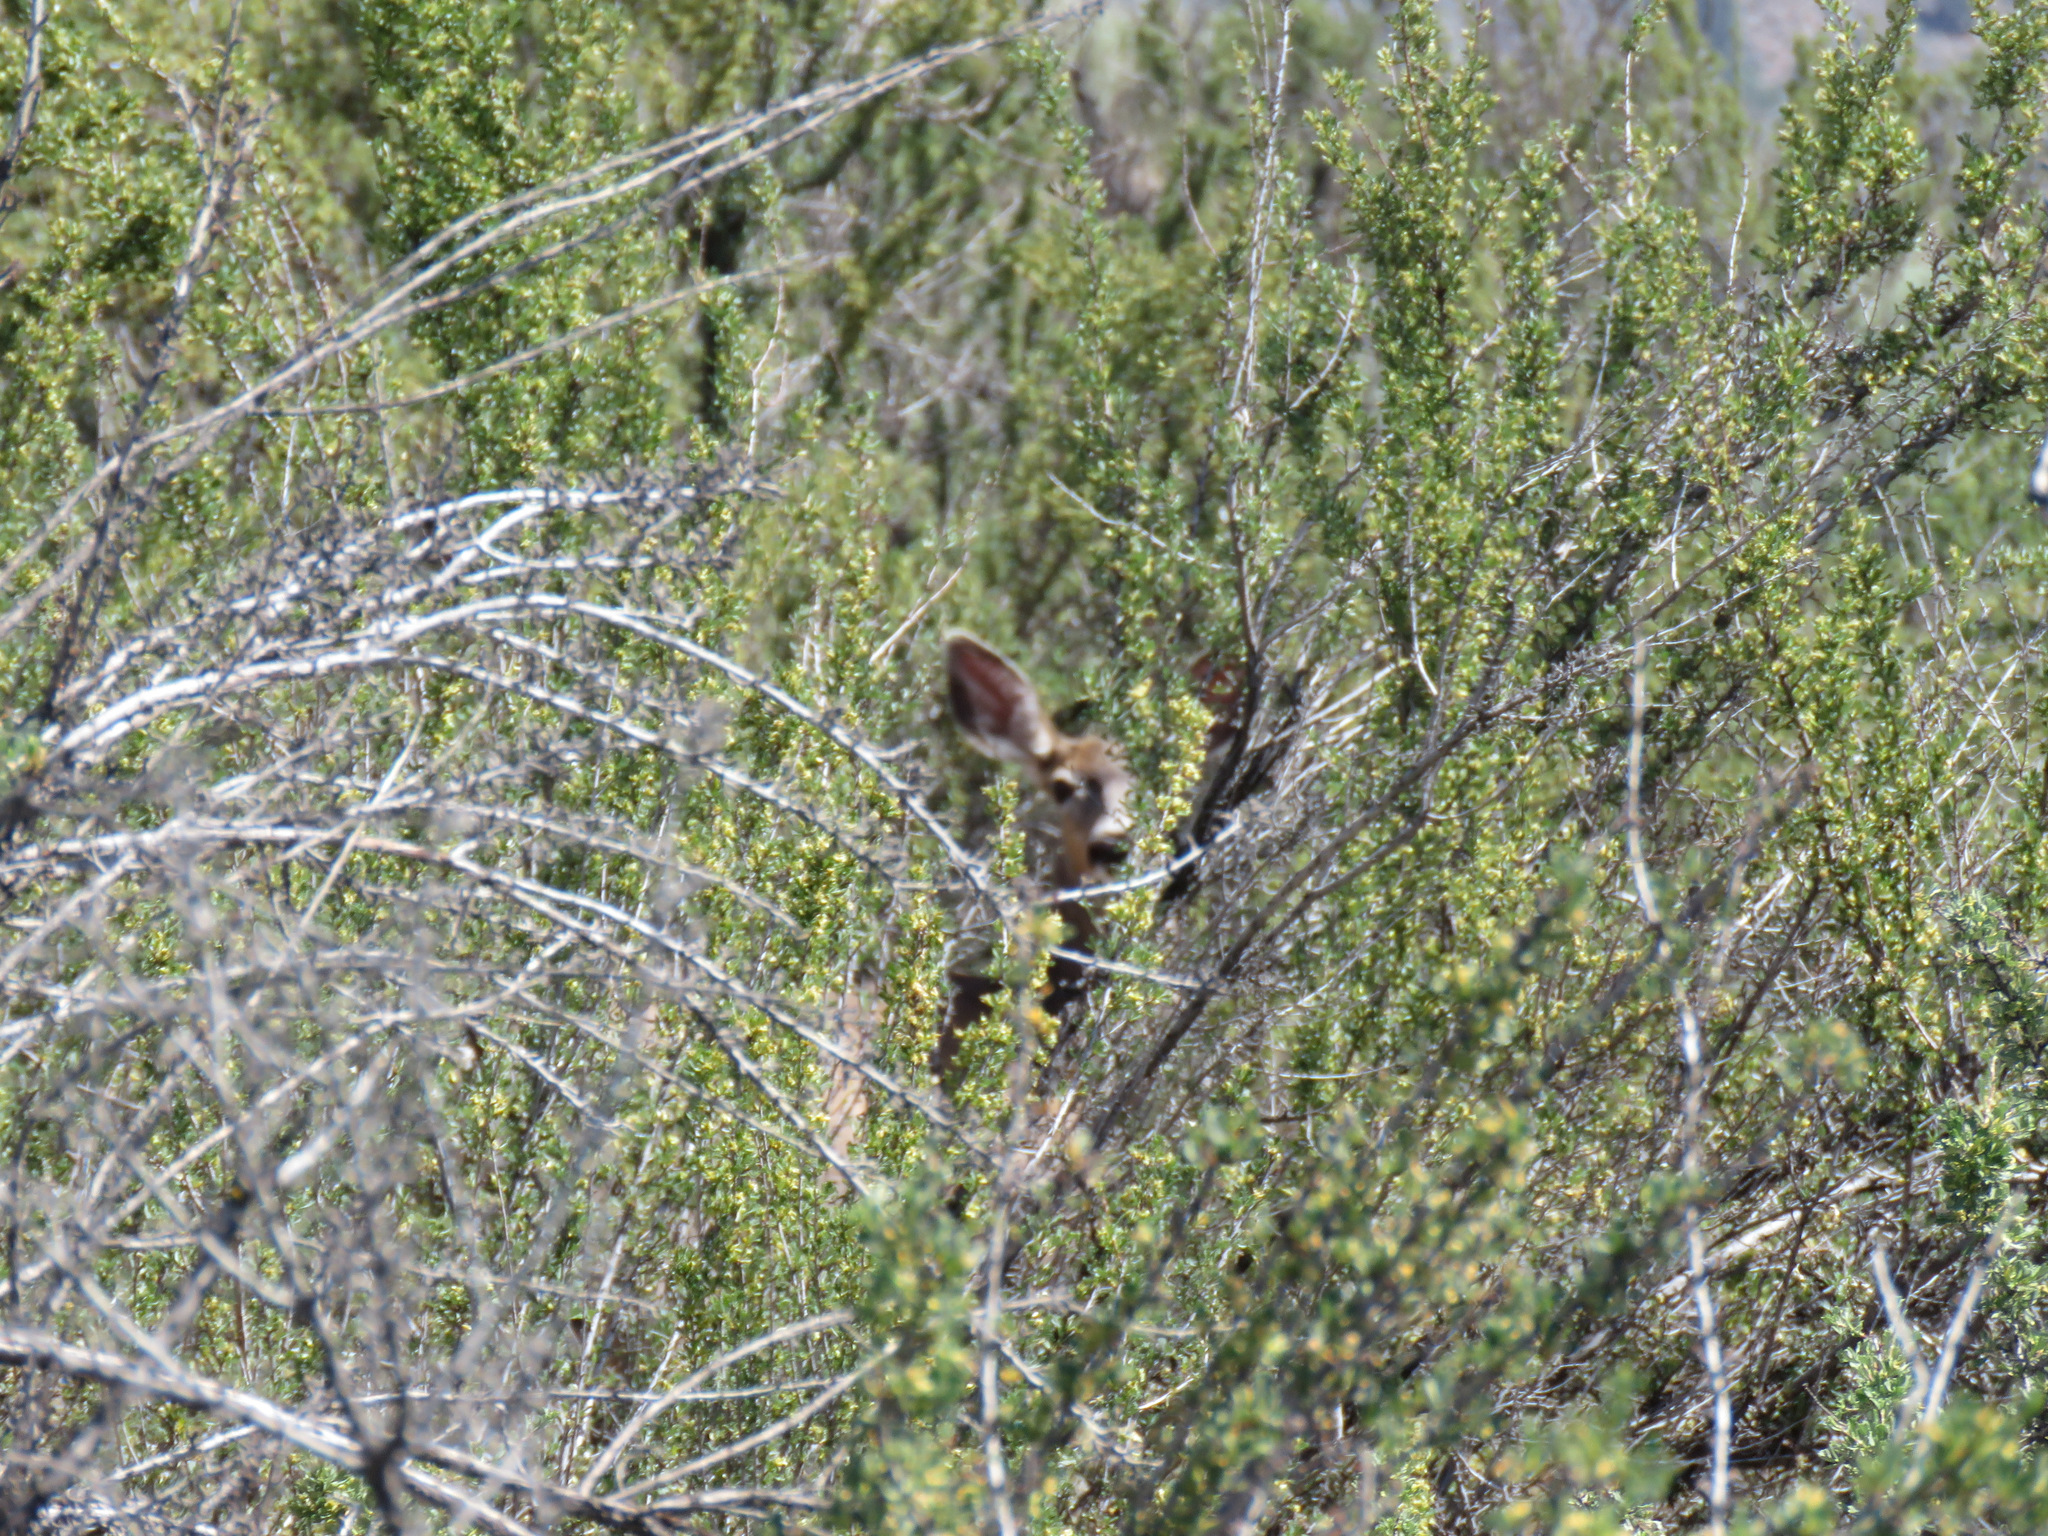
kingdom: Animalia
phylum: Chordata
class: Mammalia
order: Artiodactyla
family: Cervidae
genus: Odocoileus
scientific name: Odocoileus hemionus
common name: Mule deer
